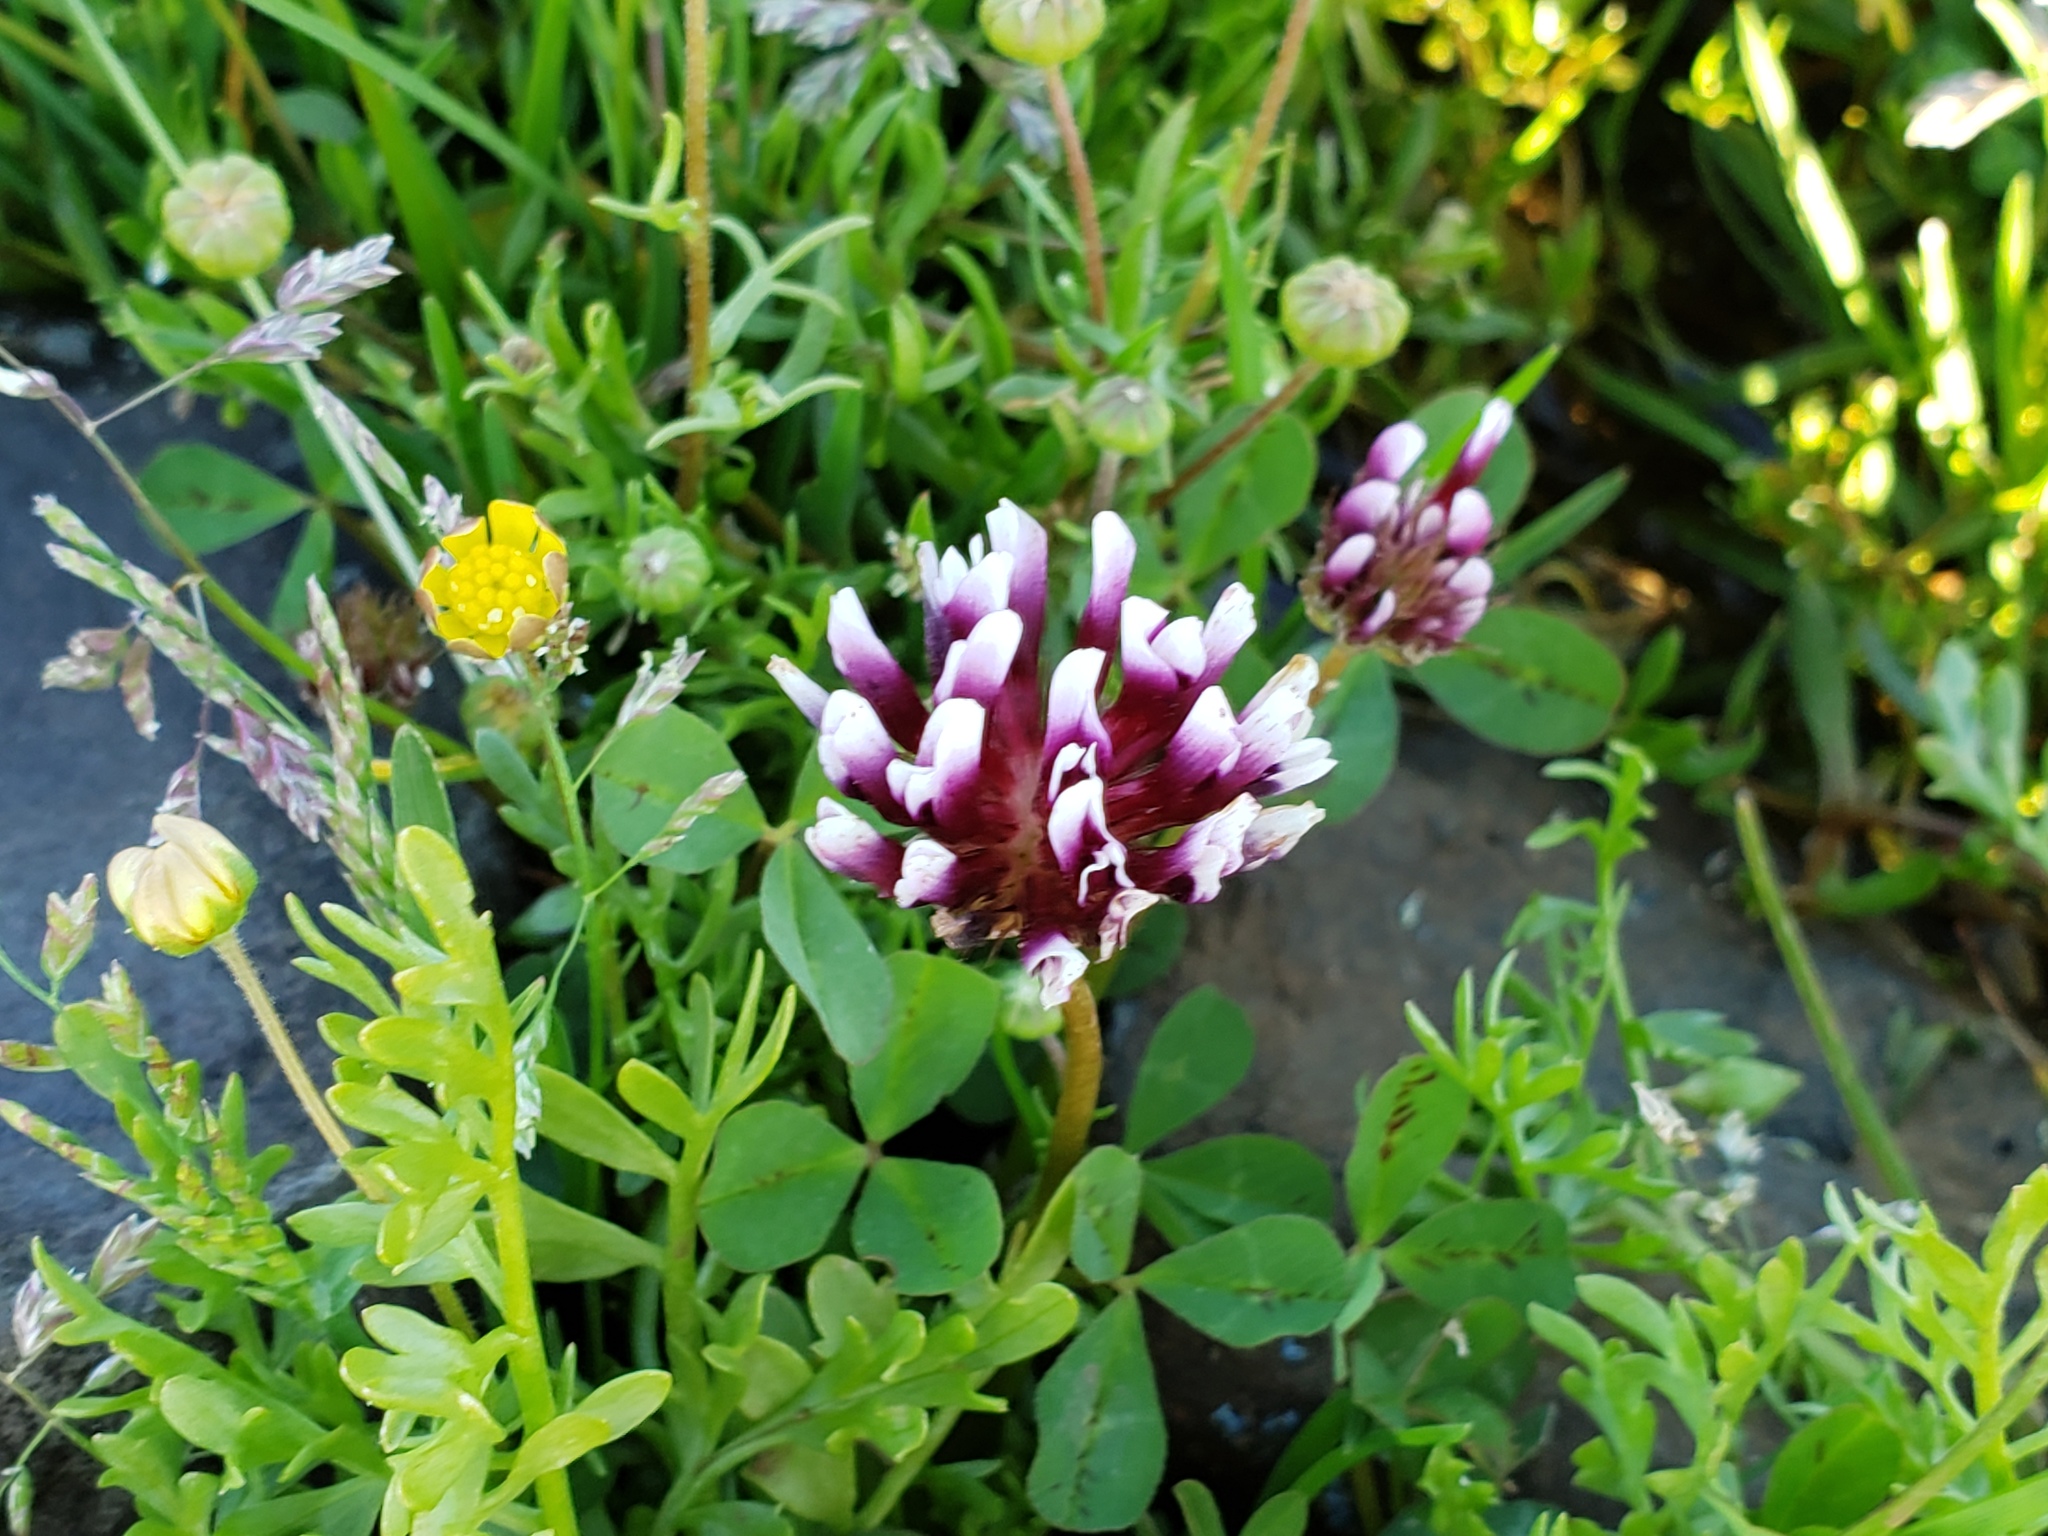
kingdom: Plantae
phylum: Tracheophyta
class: Magnoliopsida
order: Fabales
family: Fabaceae
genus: Trifolium
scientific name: Trifolium variegatum
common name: Whitetip clover
